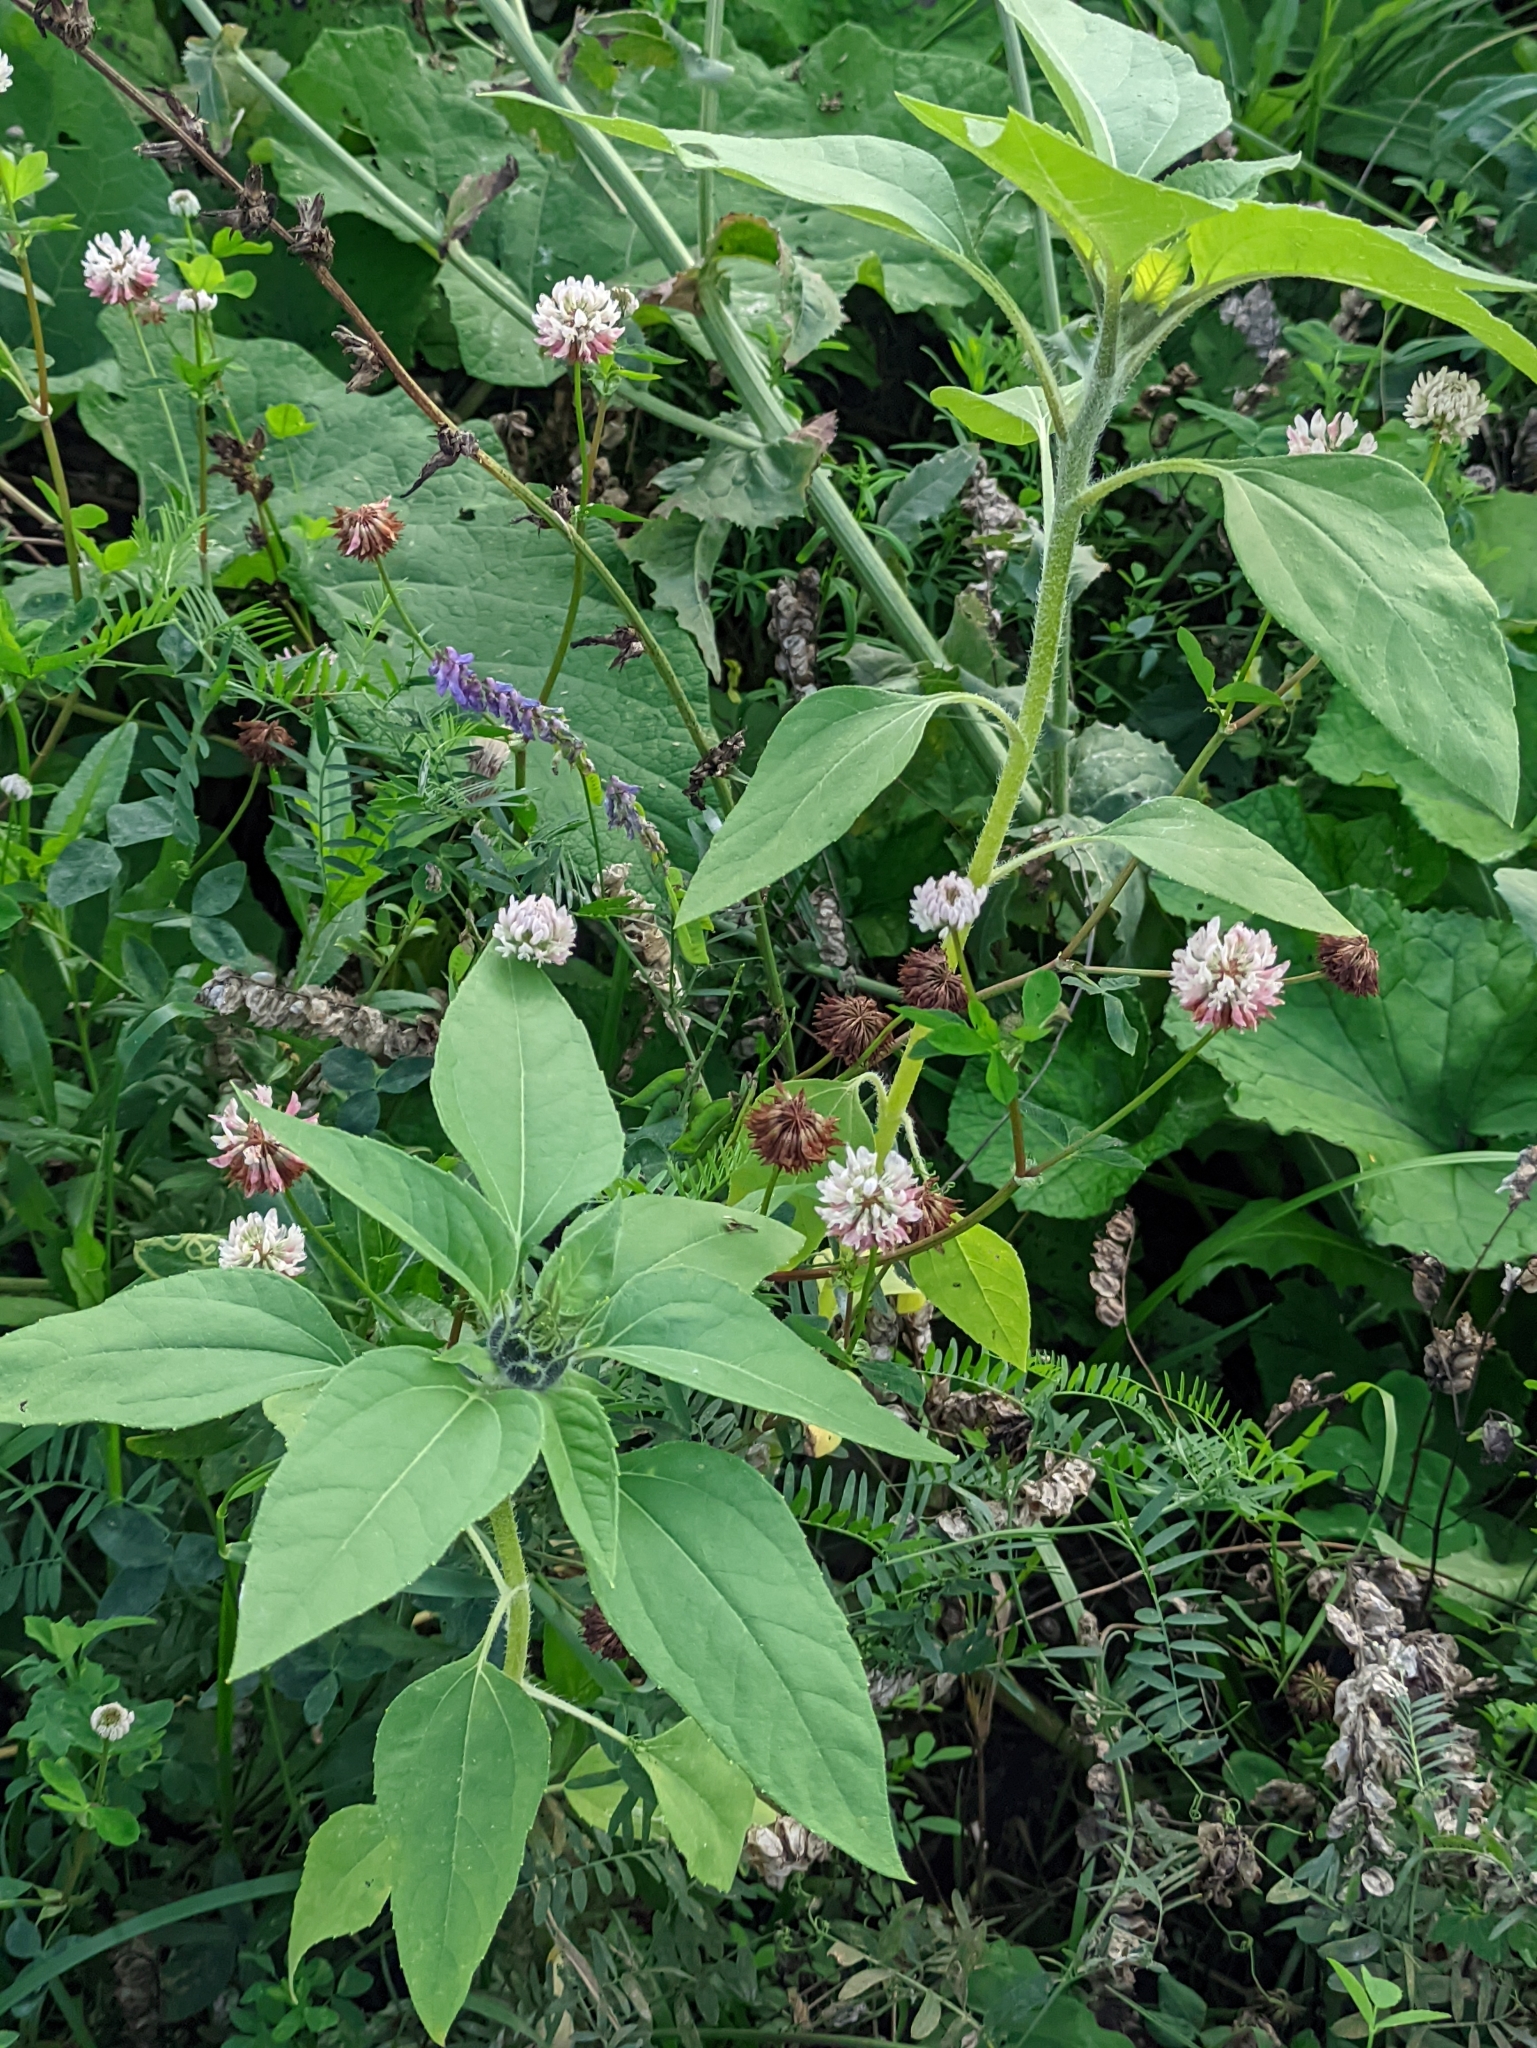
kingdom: Plantae
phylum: Tracheophyta
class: Magnoliopsida
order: Asterales
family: Asteraceae
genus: Helianthus
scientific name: Helianthus annuus
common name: Sunflower
